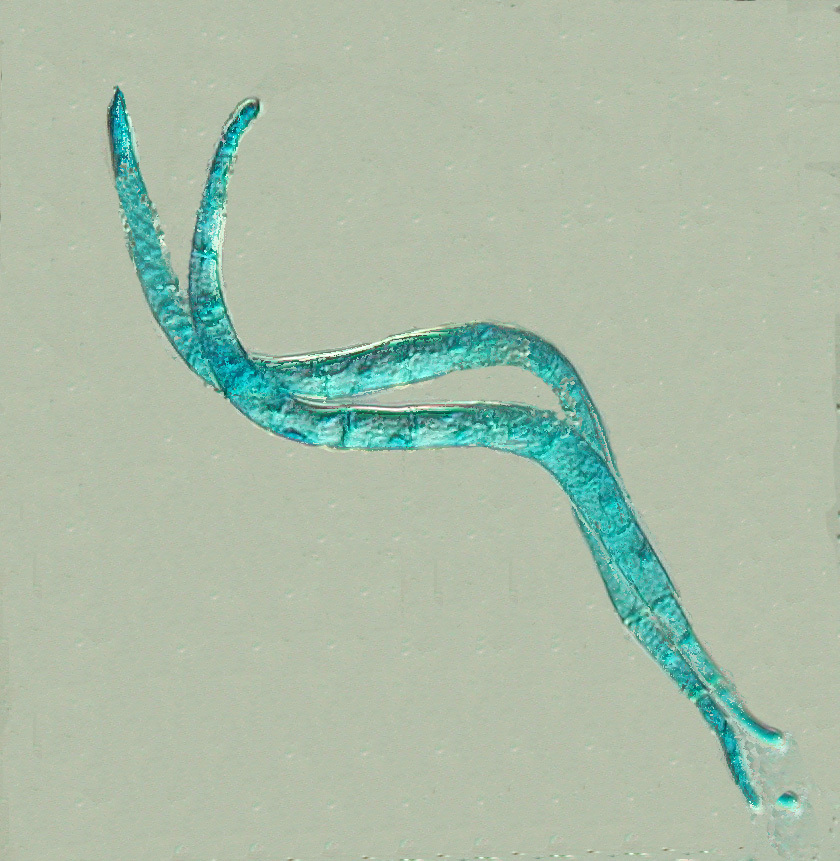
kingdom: Fungi
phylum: Ascomycota
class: Dothideomycetes
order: Pleosporales
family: Amniculicolaceae
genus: Anguillospora
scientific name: Anguillospora crassa
